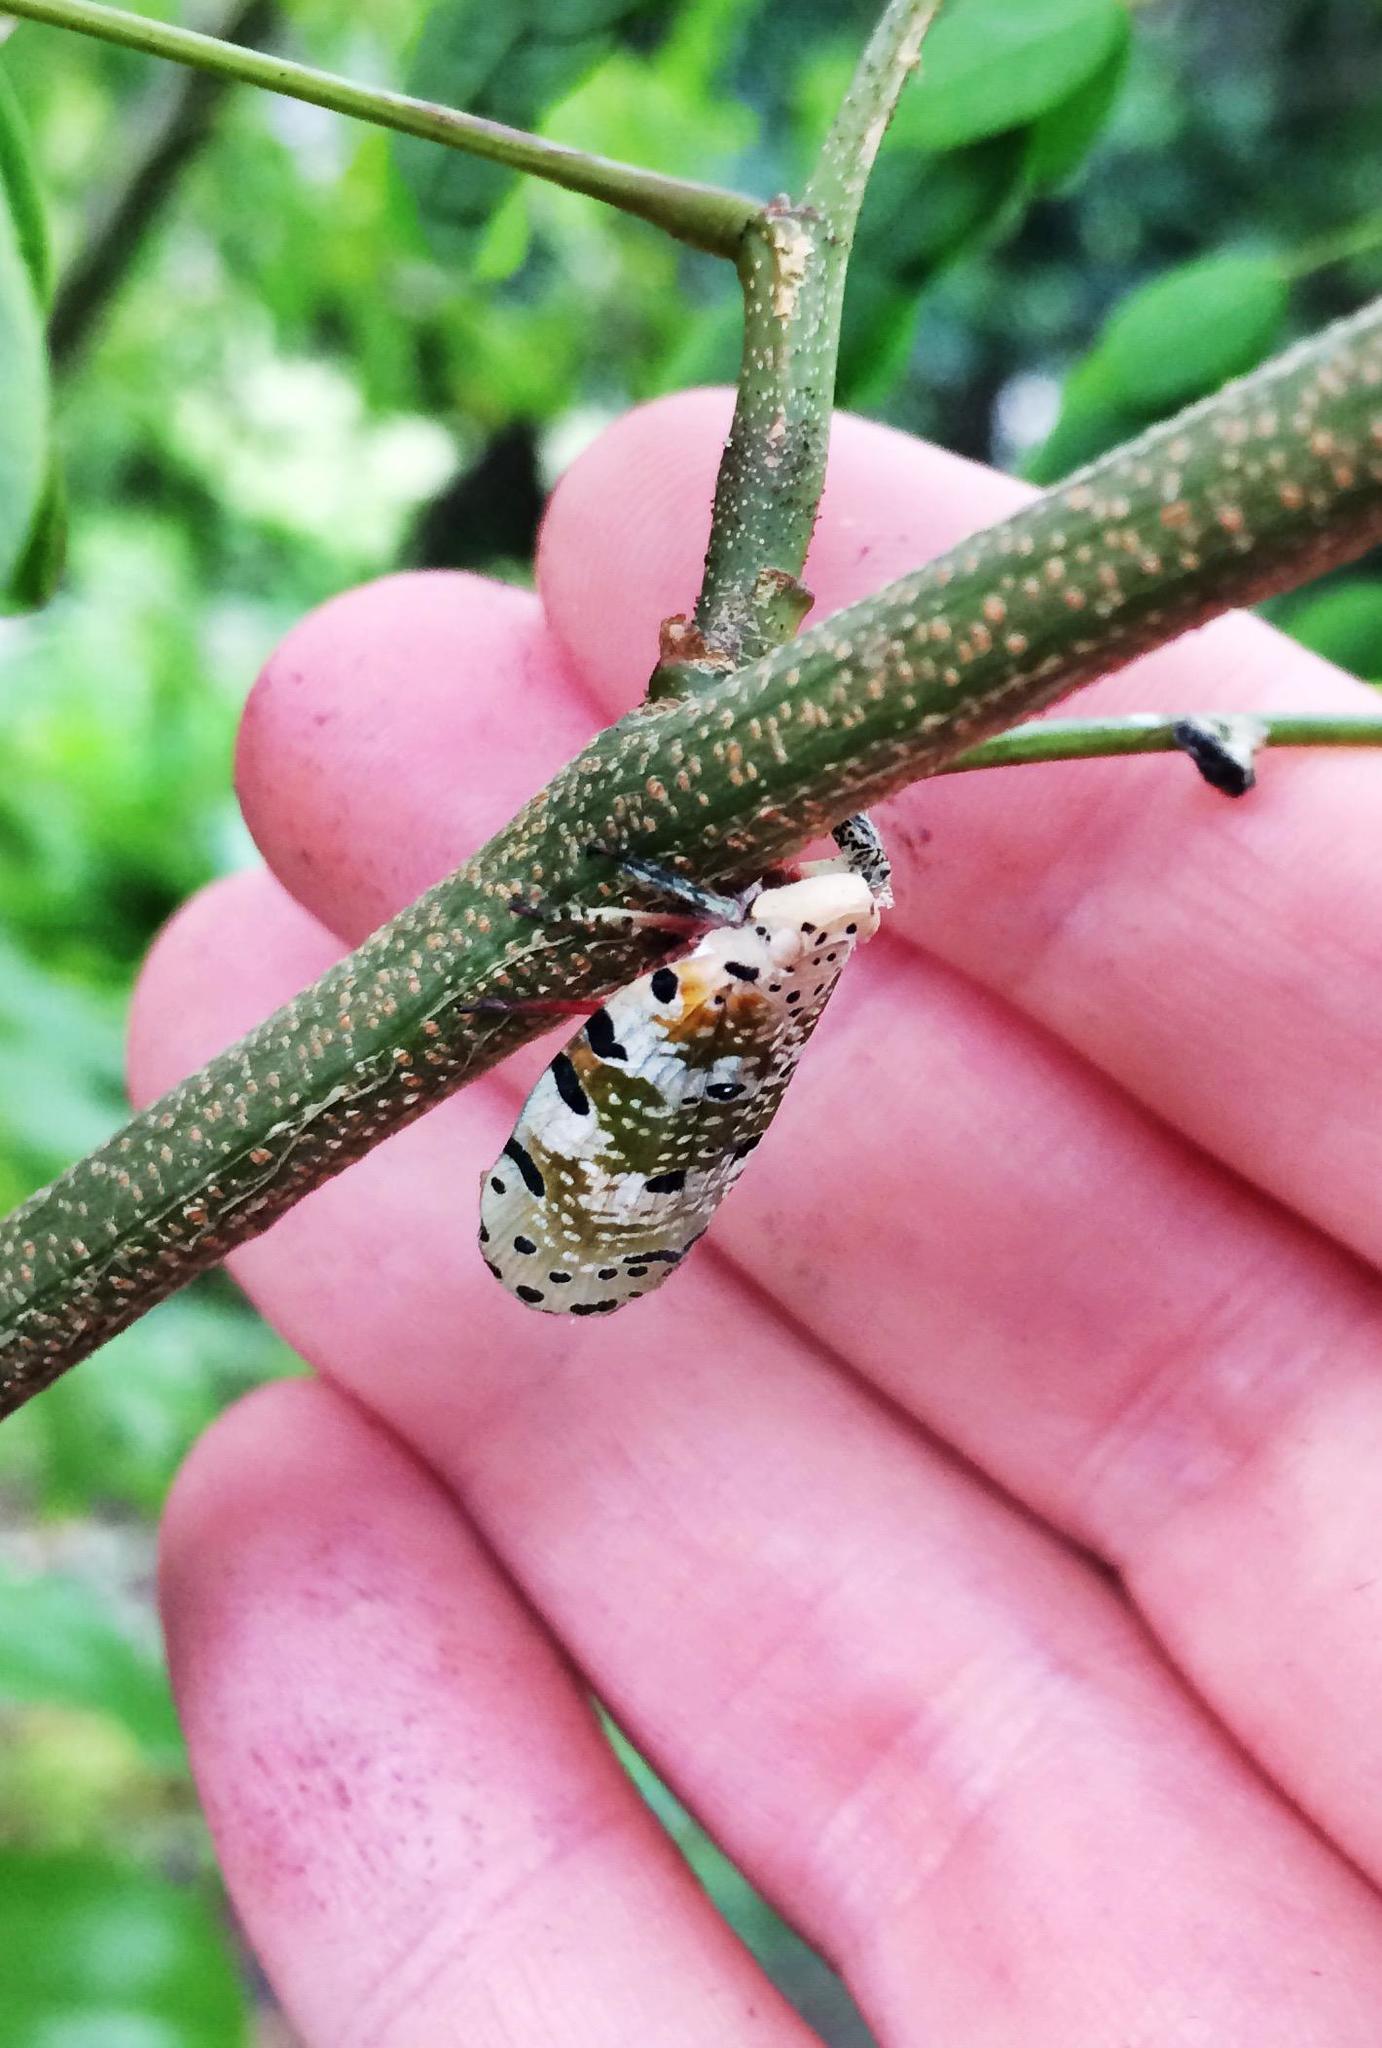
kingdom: Animalia
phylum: Arthropoda
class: Insecta
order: Hemiptera
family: Eurybrachidae
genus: Paropioxys
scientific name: Paropioxys jucundus
